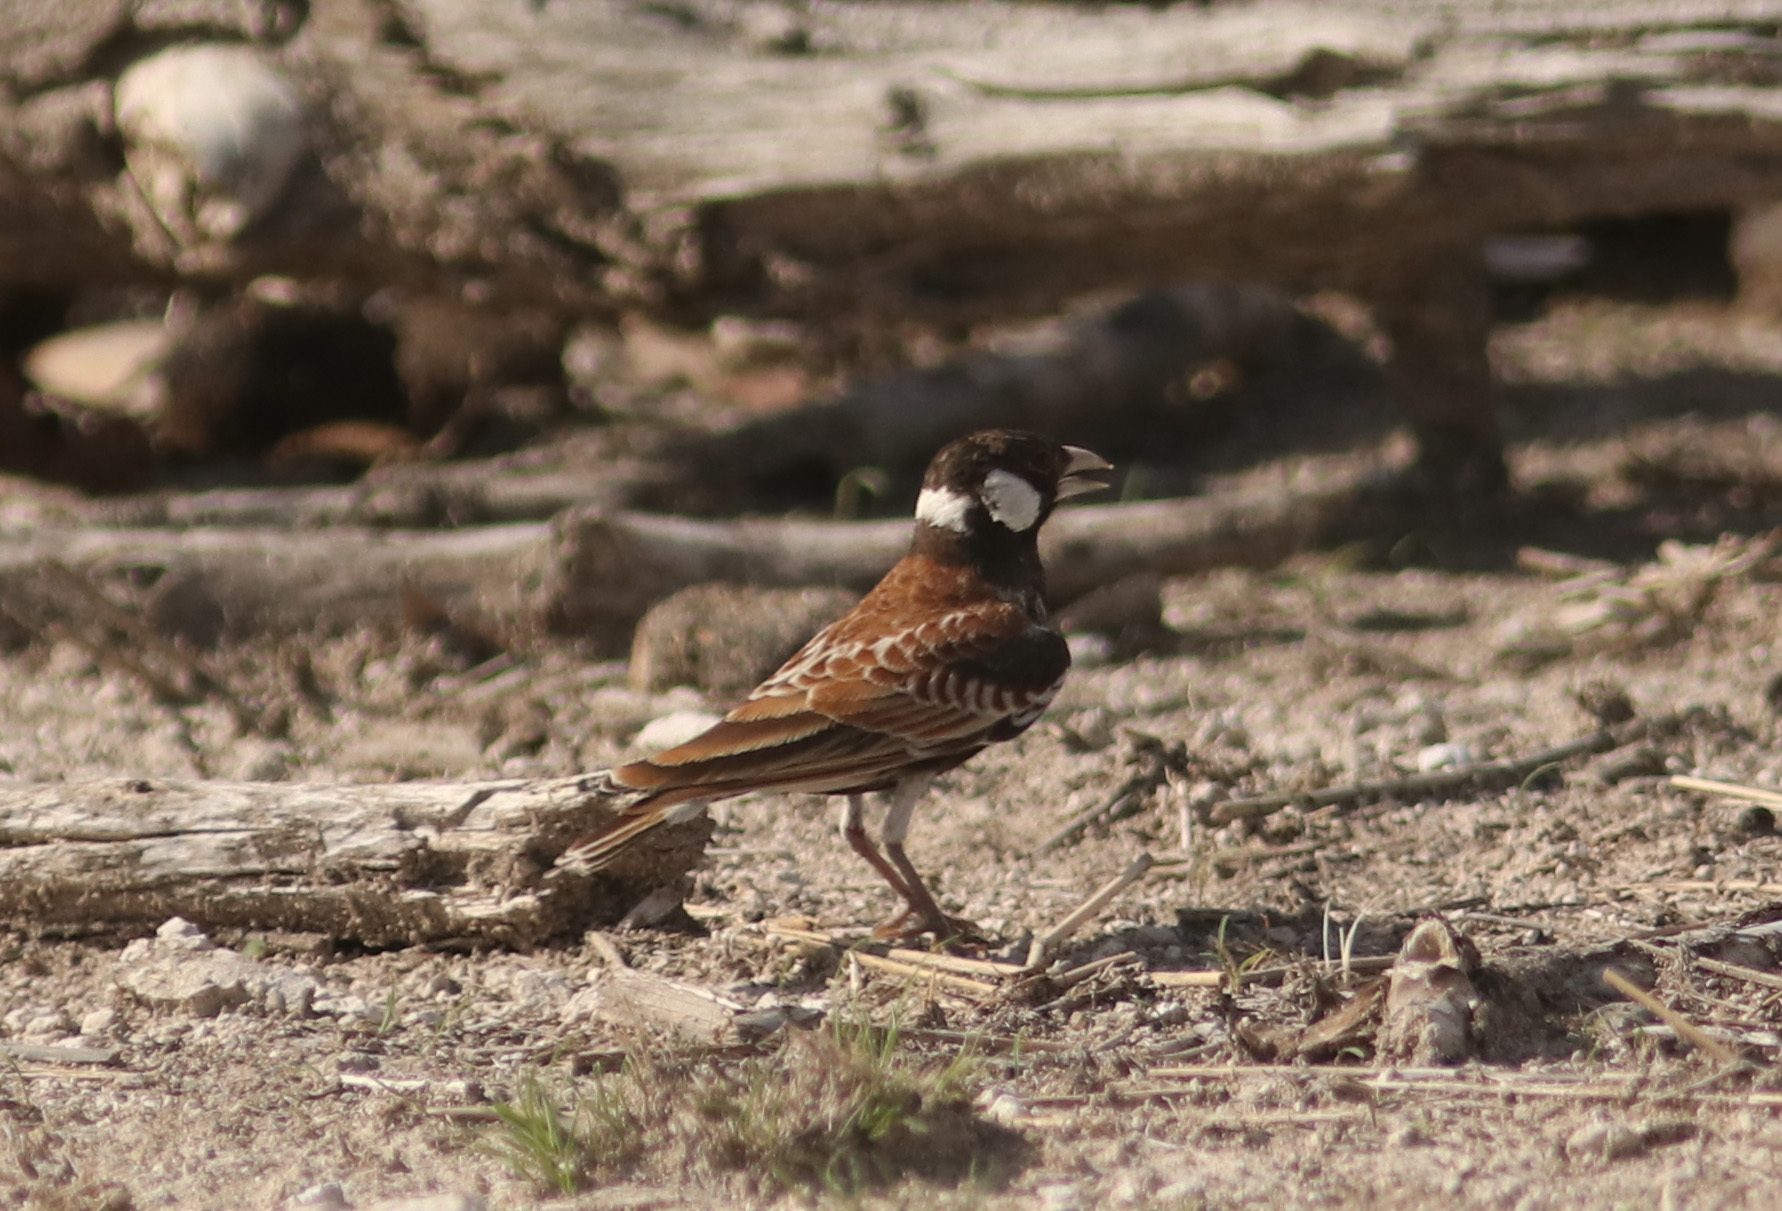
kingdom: Animalia
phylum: Chordata
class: Aves
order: Passeriformes
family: Alaudidae
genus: Eremopterix
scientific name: Eremopterix leucotis
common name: Chestnut-backed sparrow-lark
